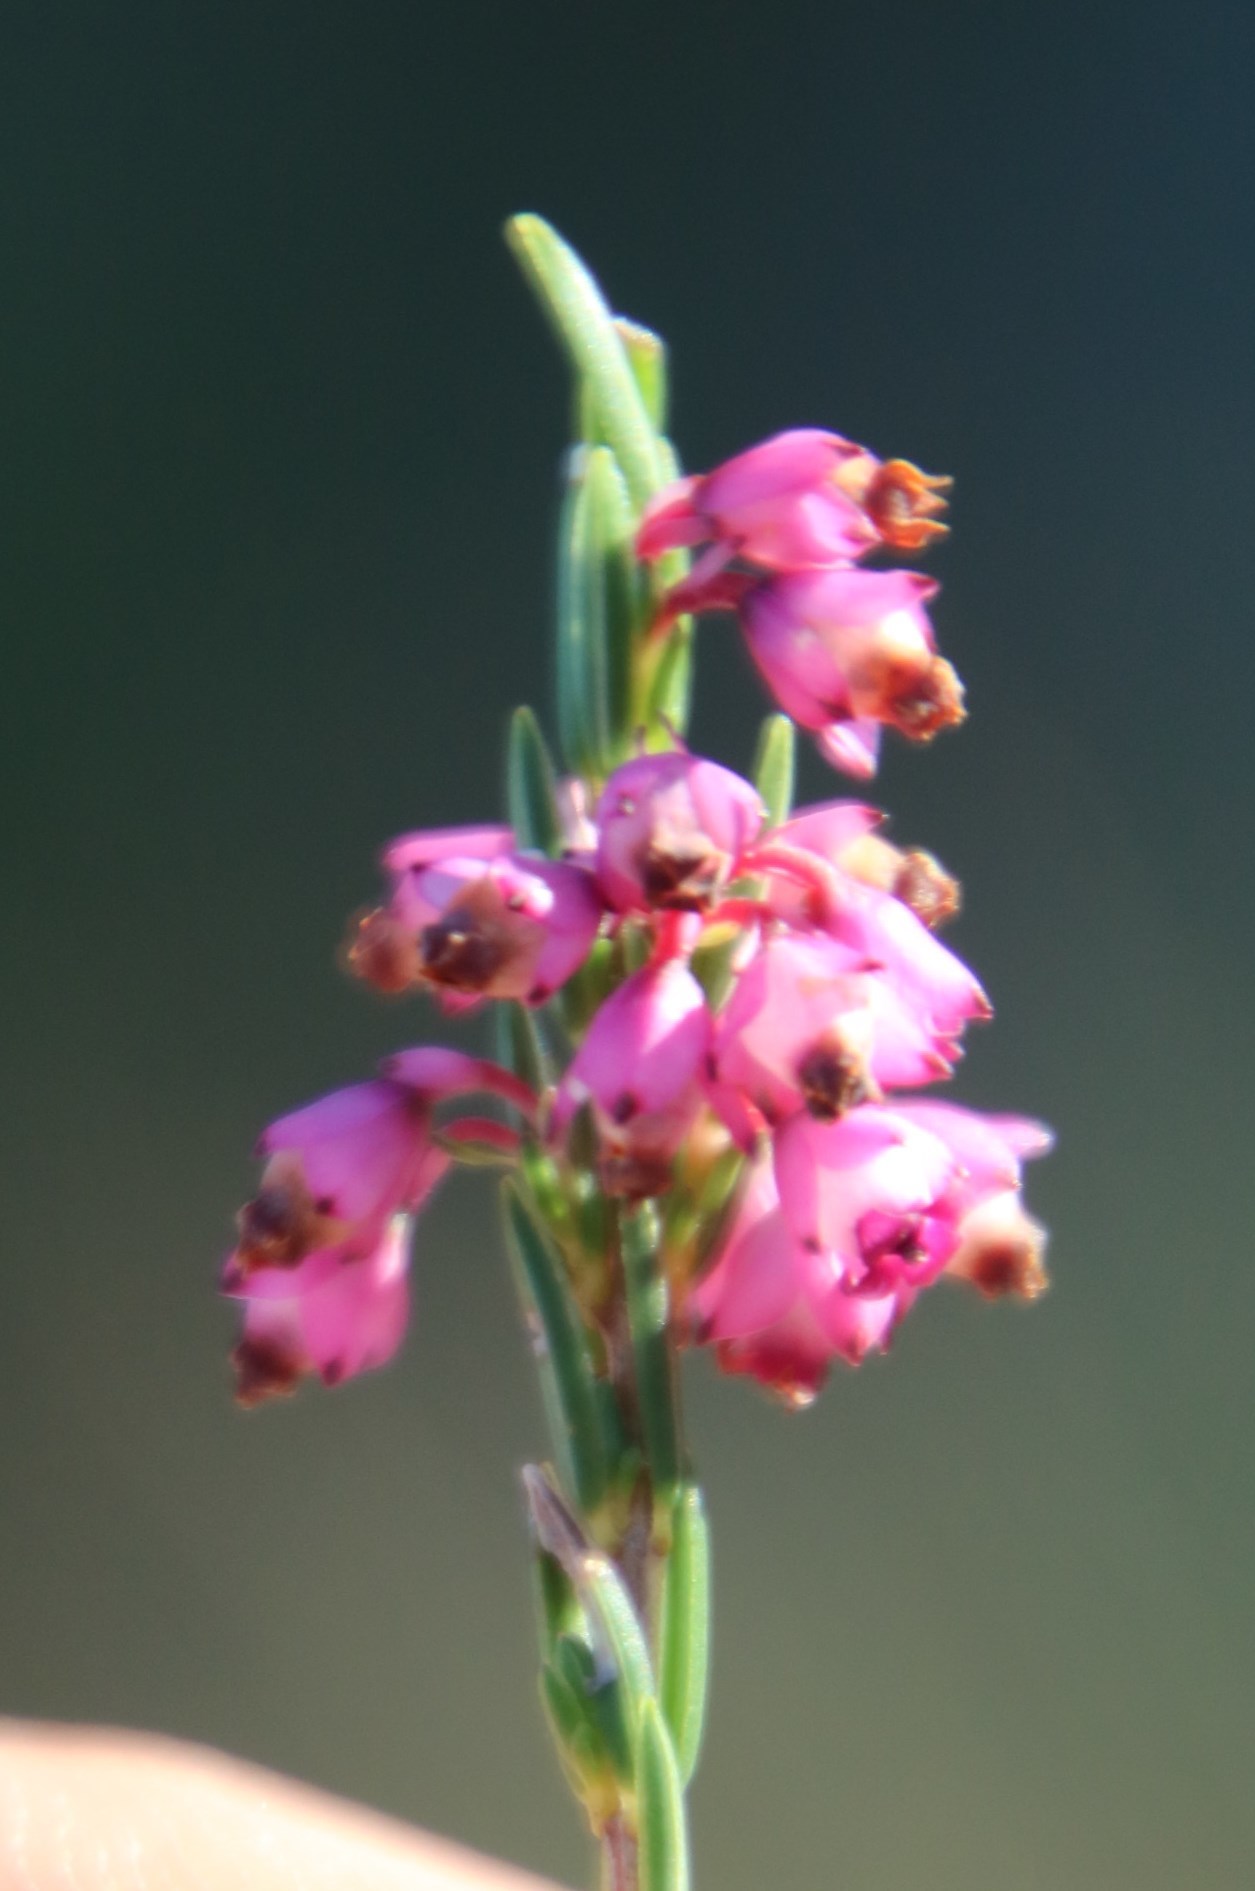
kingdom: Plantae
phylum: Tracheophyta
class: Magnoliopsida
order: Ericales
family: Ericaceae
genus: Erica
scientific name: Erica corifolia
